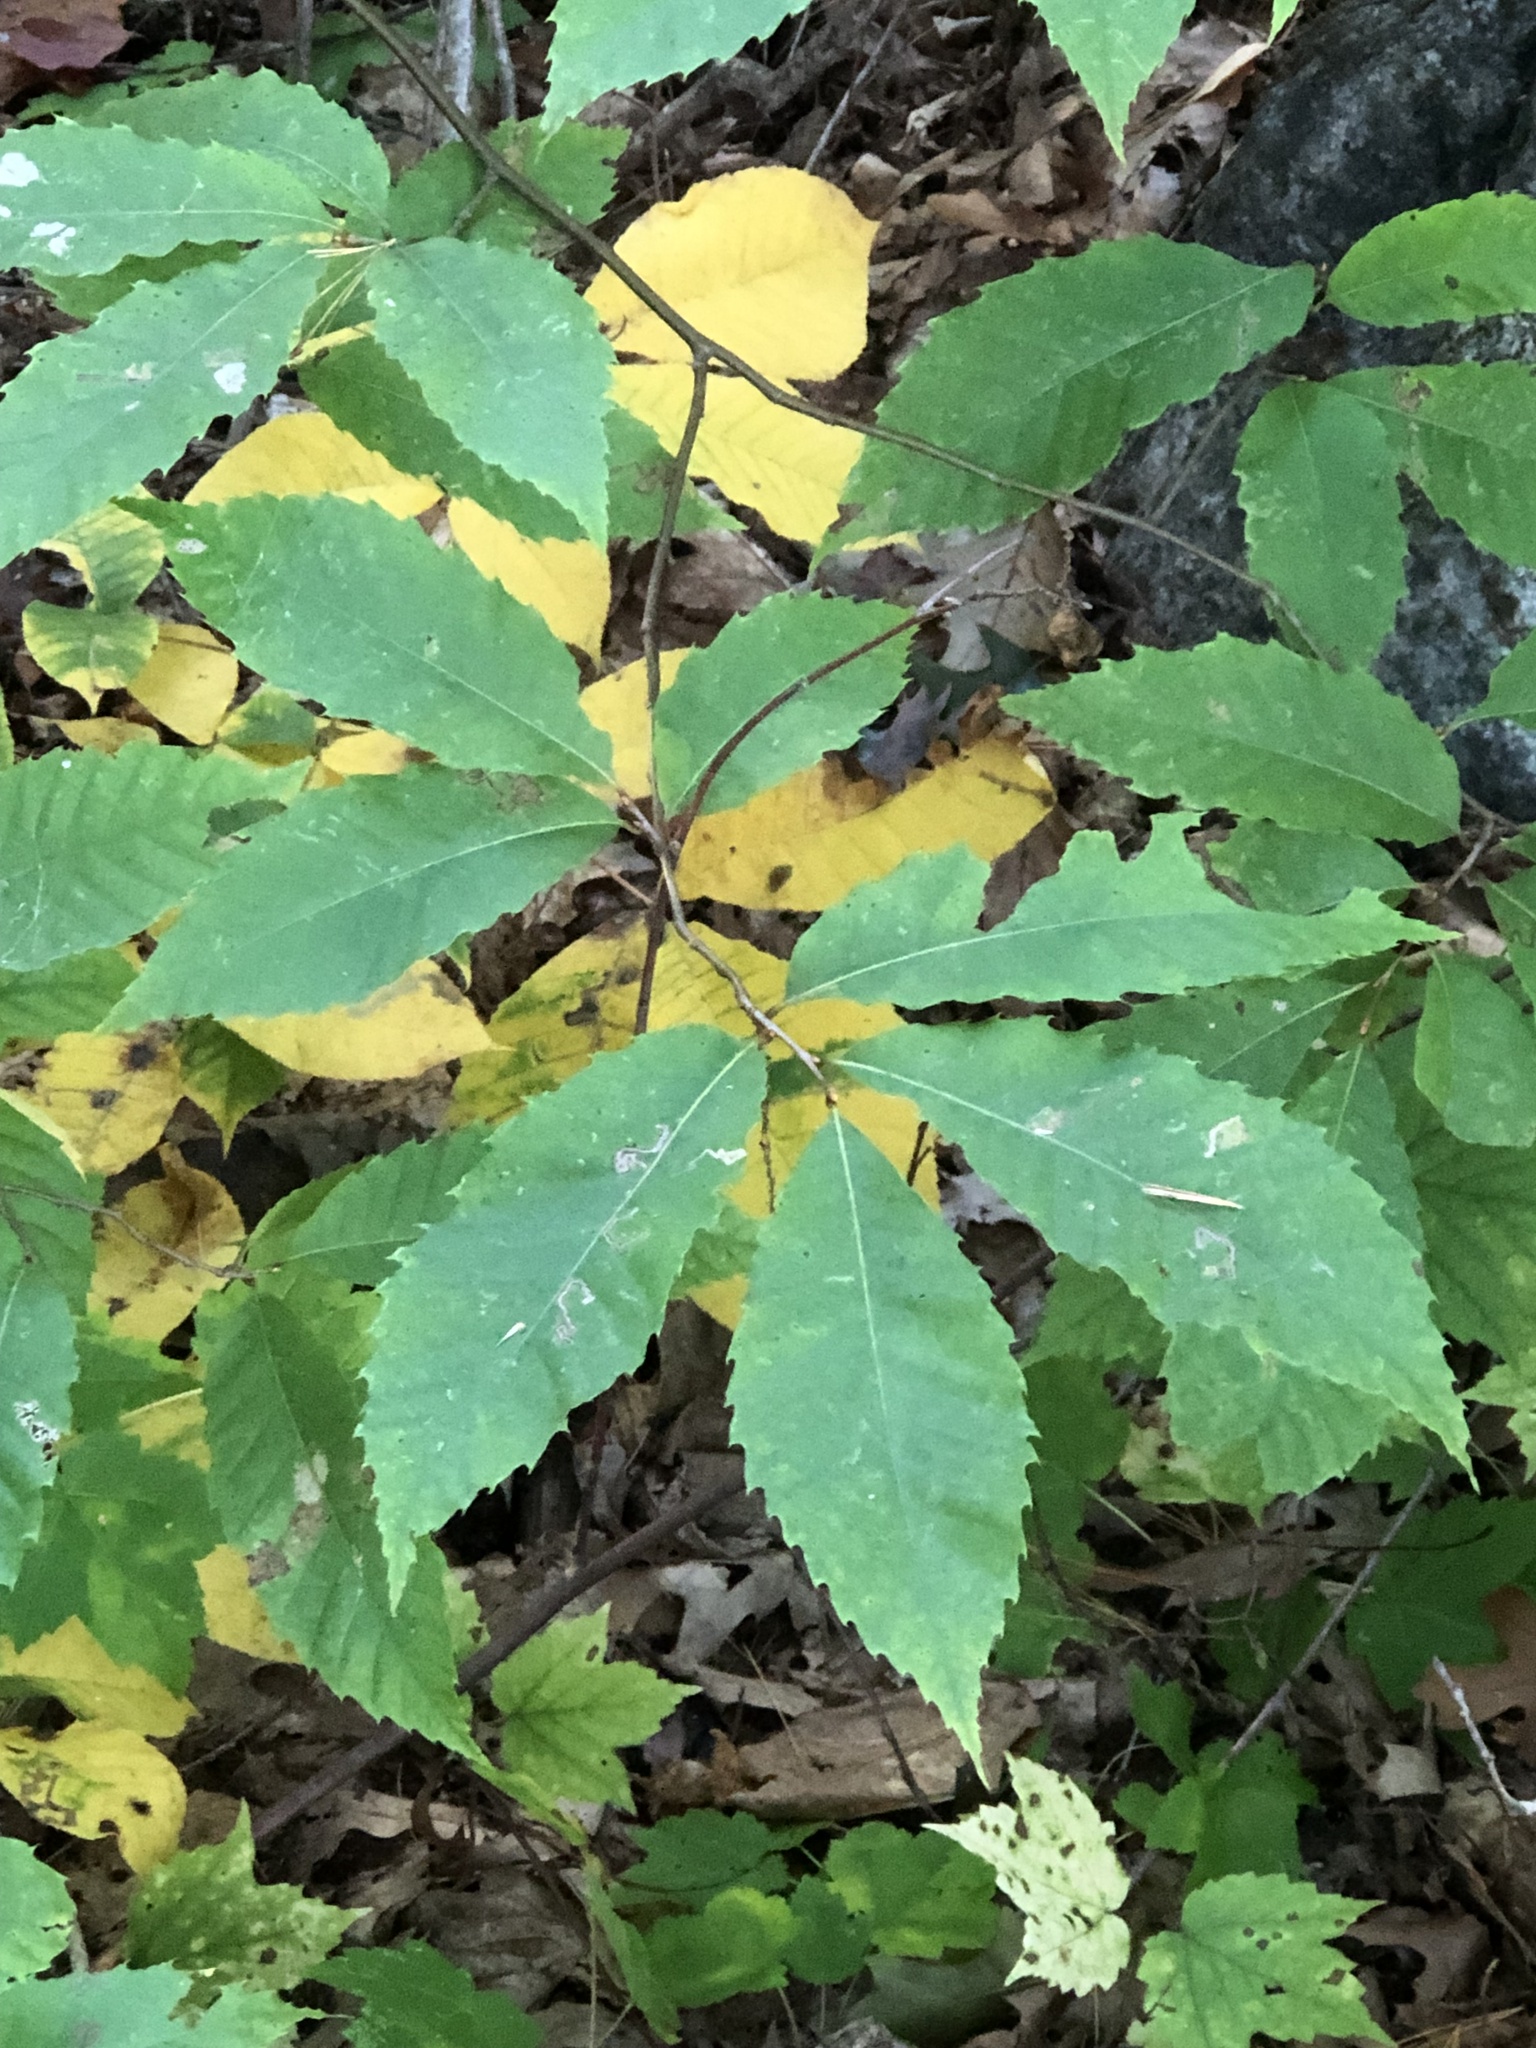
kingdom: Plantae
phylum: Tracheophyta
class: Magnoliopsida
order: Fagales
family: Fagaceae
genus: Castanea
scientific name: Castanea dentata
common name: American chestnut
